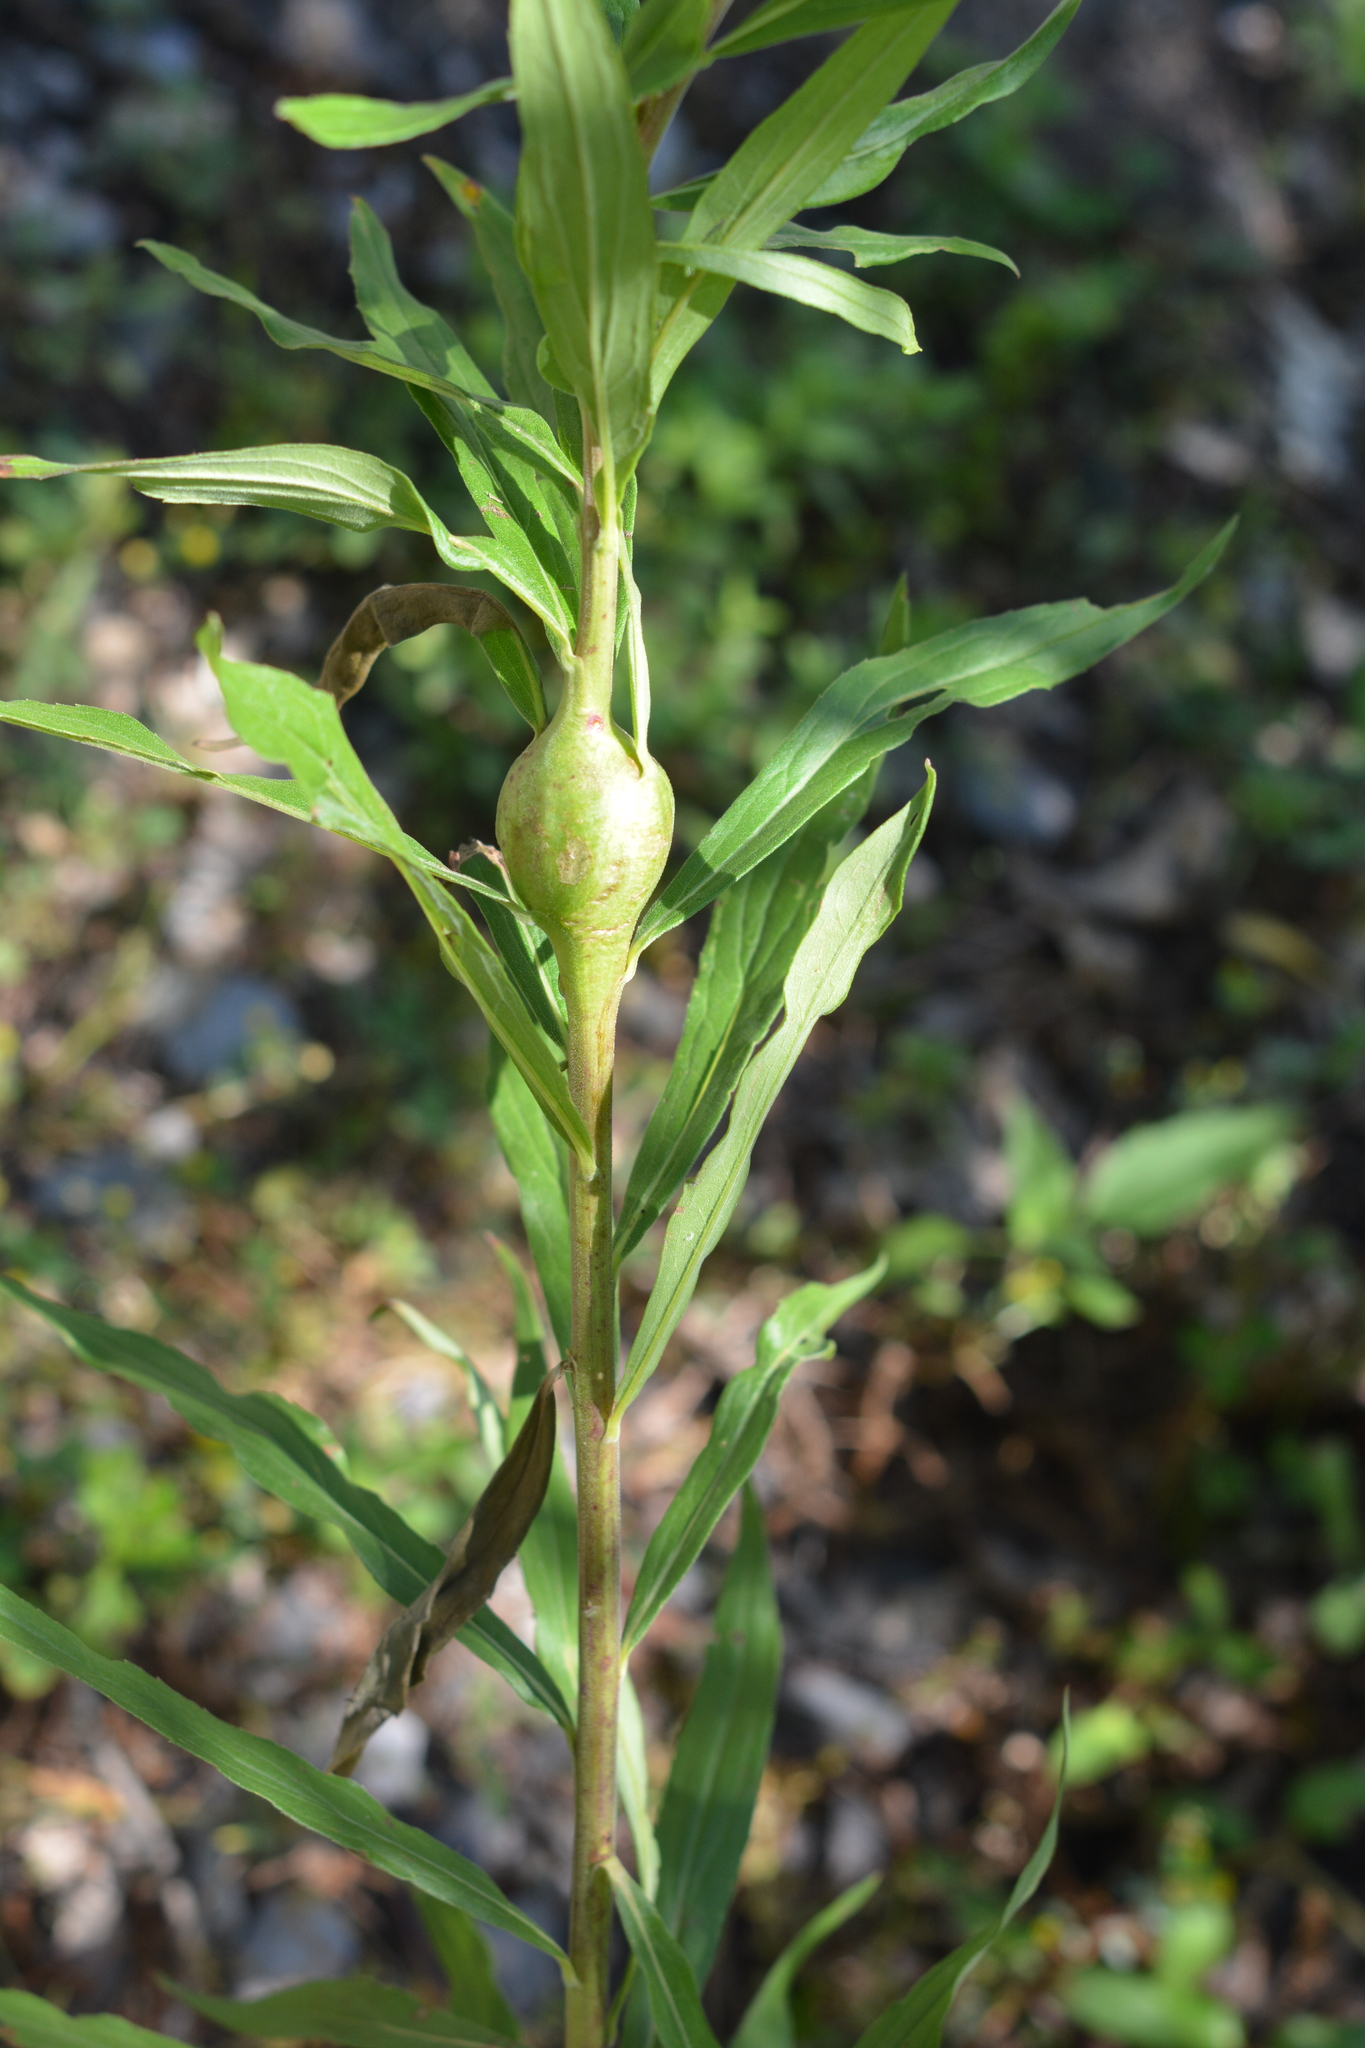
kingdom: Animalia
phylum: Arthropoda
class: Insecta
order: Diptera
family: Tephritidae
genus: Eurosta
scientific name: Eurosta solidaginis
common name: Goldenrod gall fly
